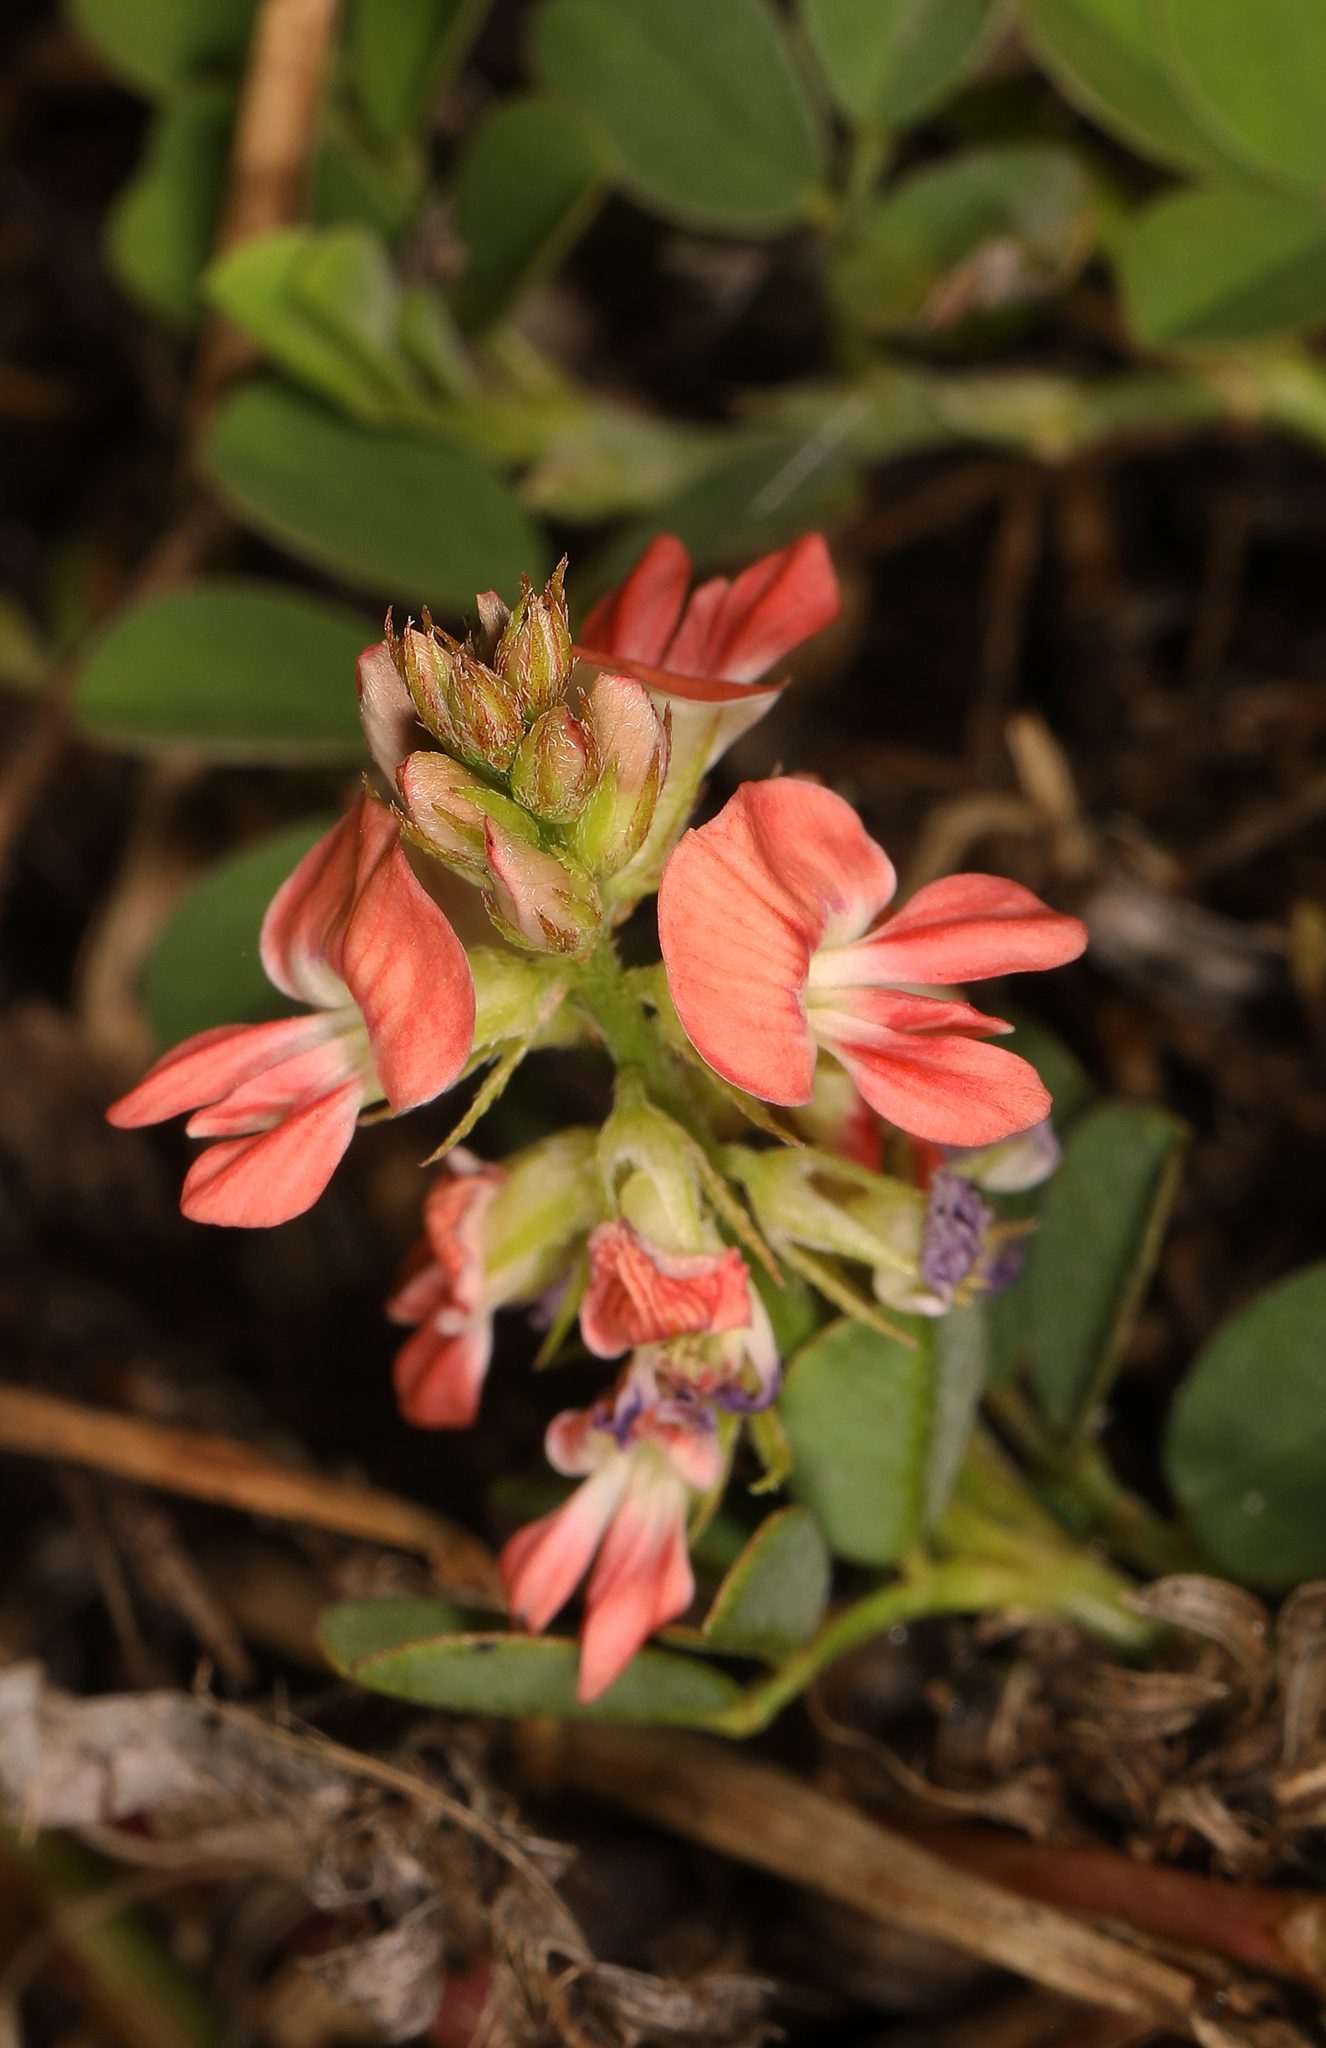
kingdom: Plantae
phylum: Tracheophyta
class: Magnoliopsida
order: Fabales
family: Fabaceae
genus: Indigofera
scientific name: Indigofera spicata
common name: Creeping indigo
